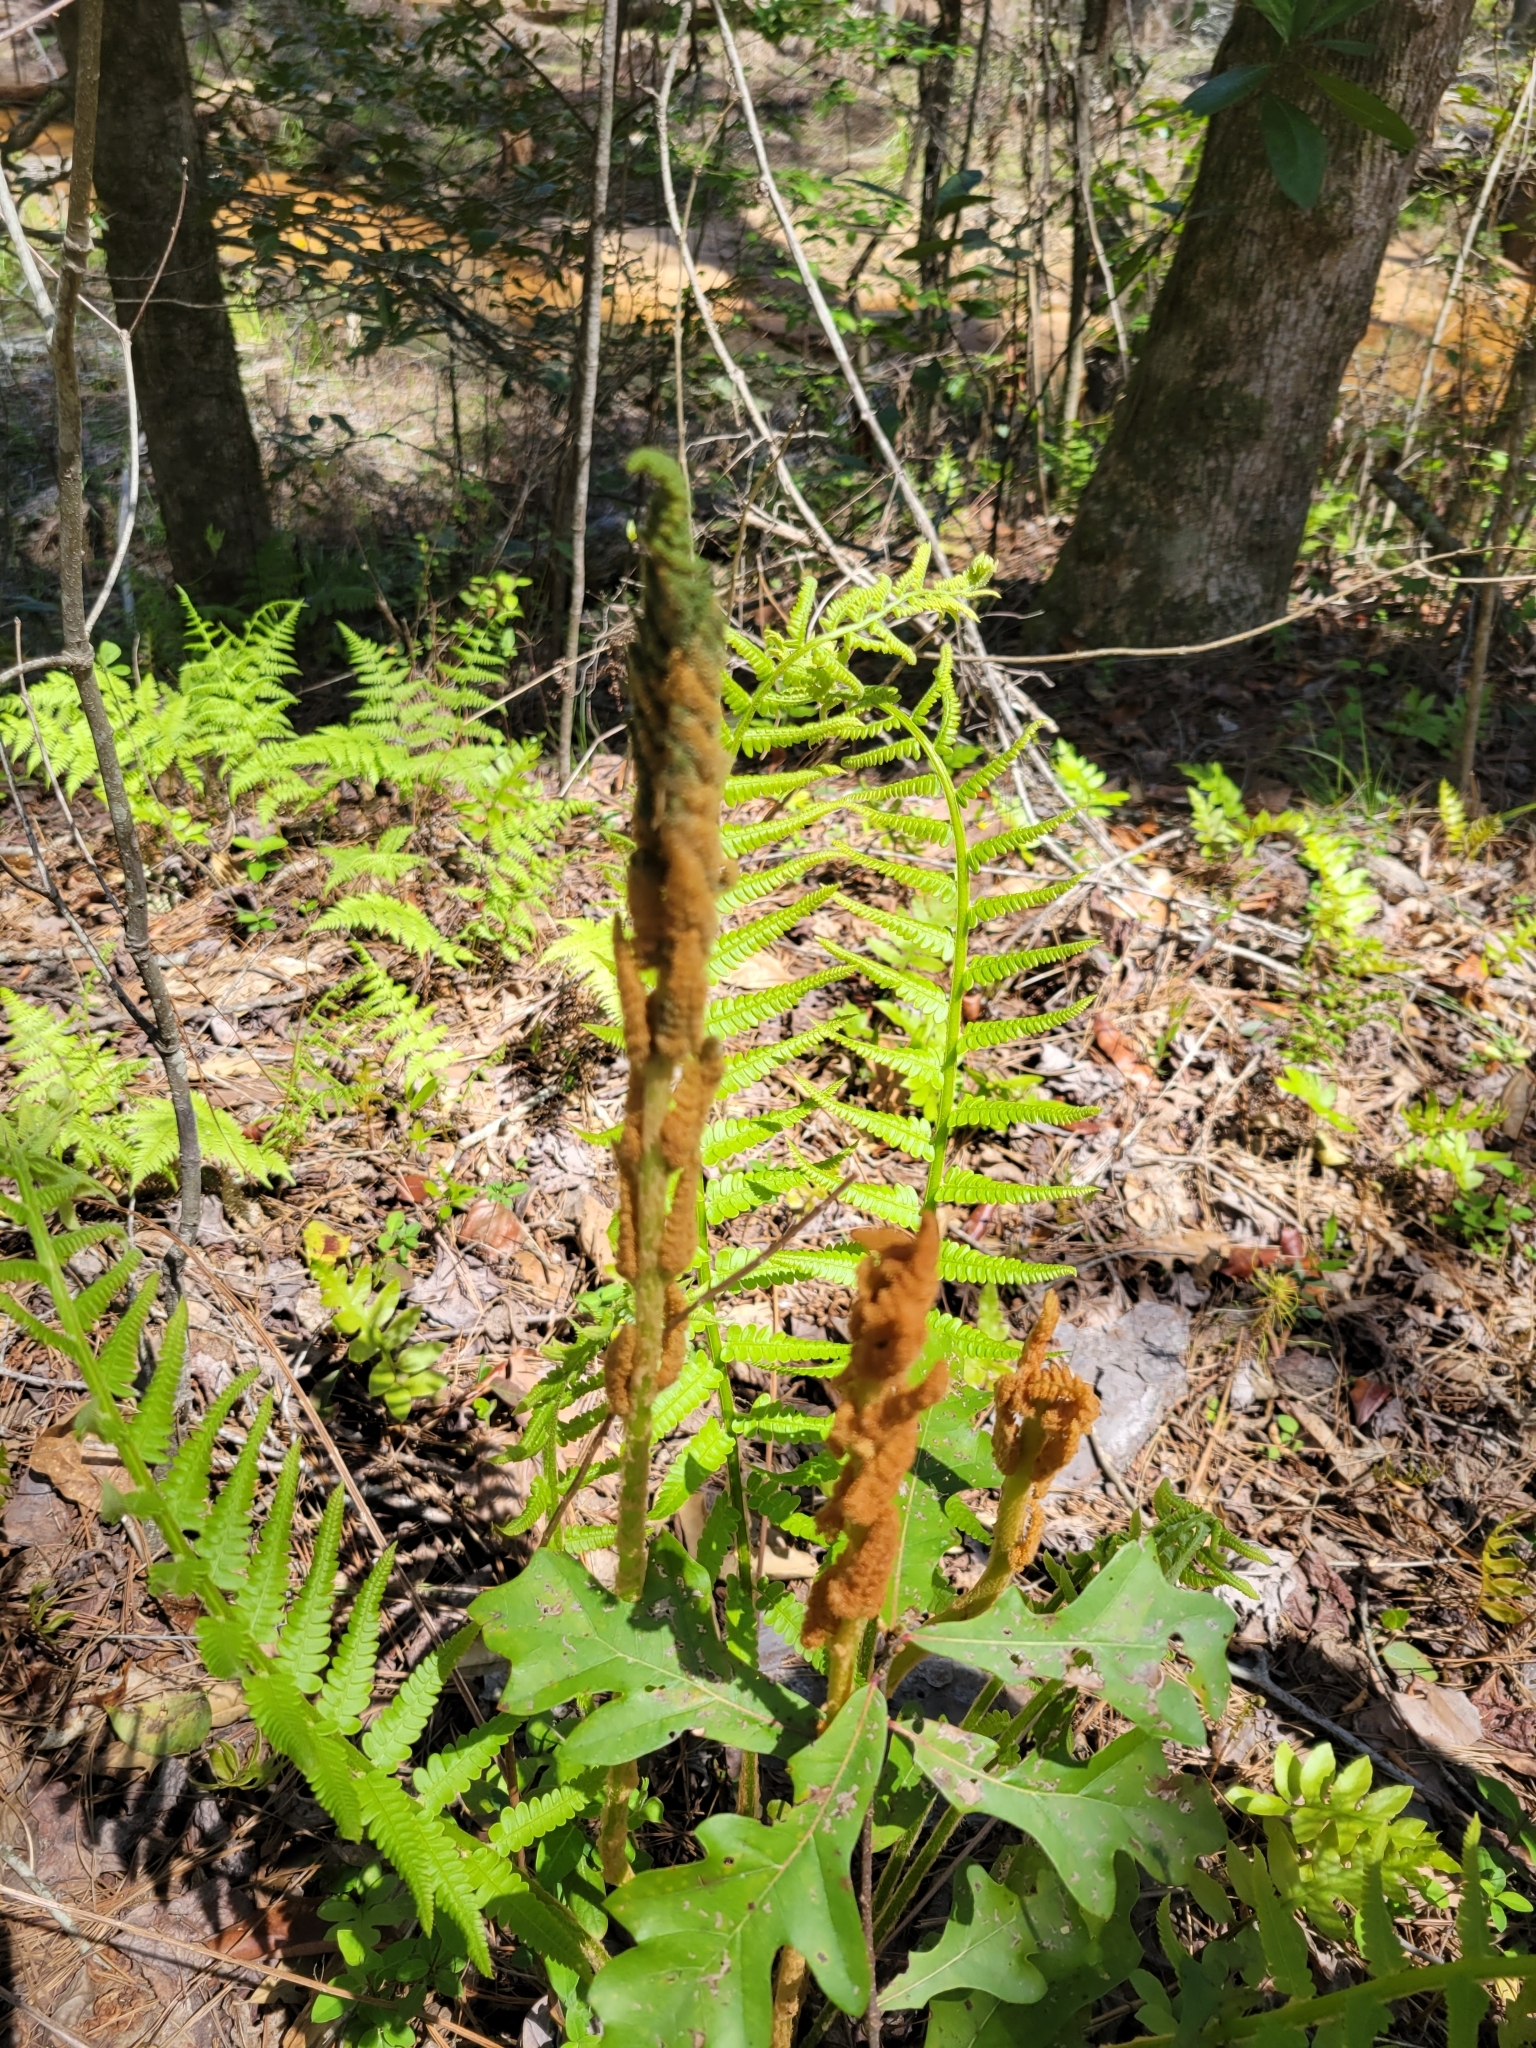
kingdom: Plantae
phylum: Tracheophyta
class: Polypodiopsida
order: Osmundales
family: Osmundaceae
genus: Osmundastrum
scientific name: Osmundastrum cinnamomeum
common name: Cinnamon fern
